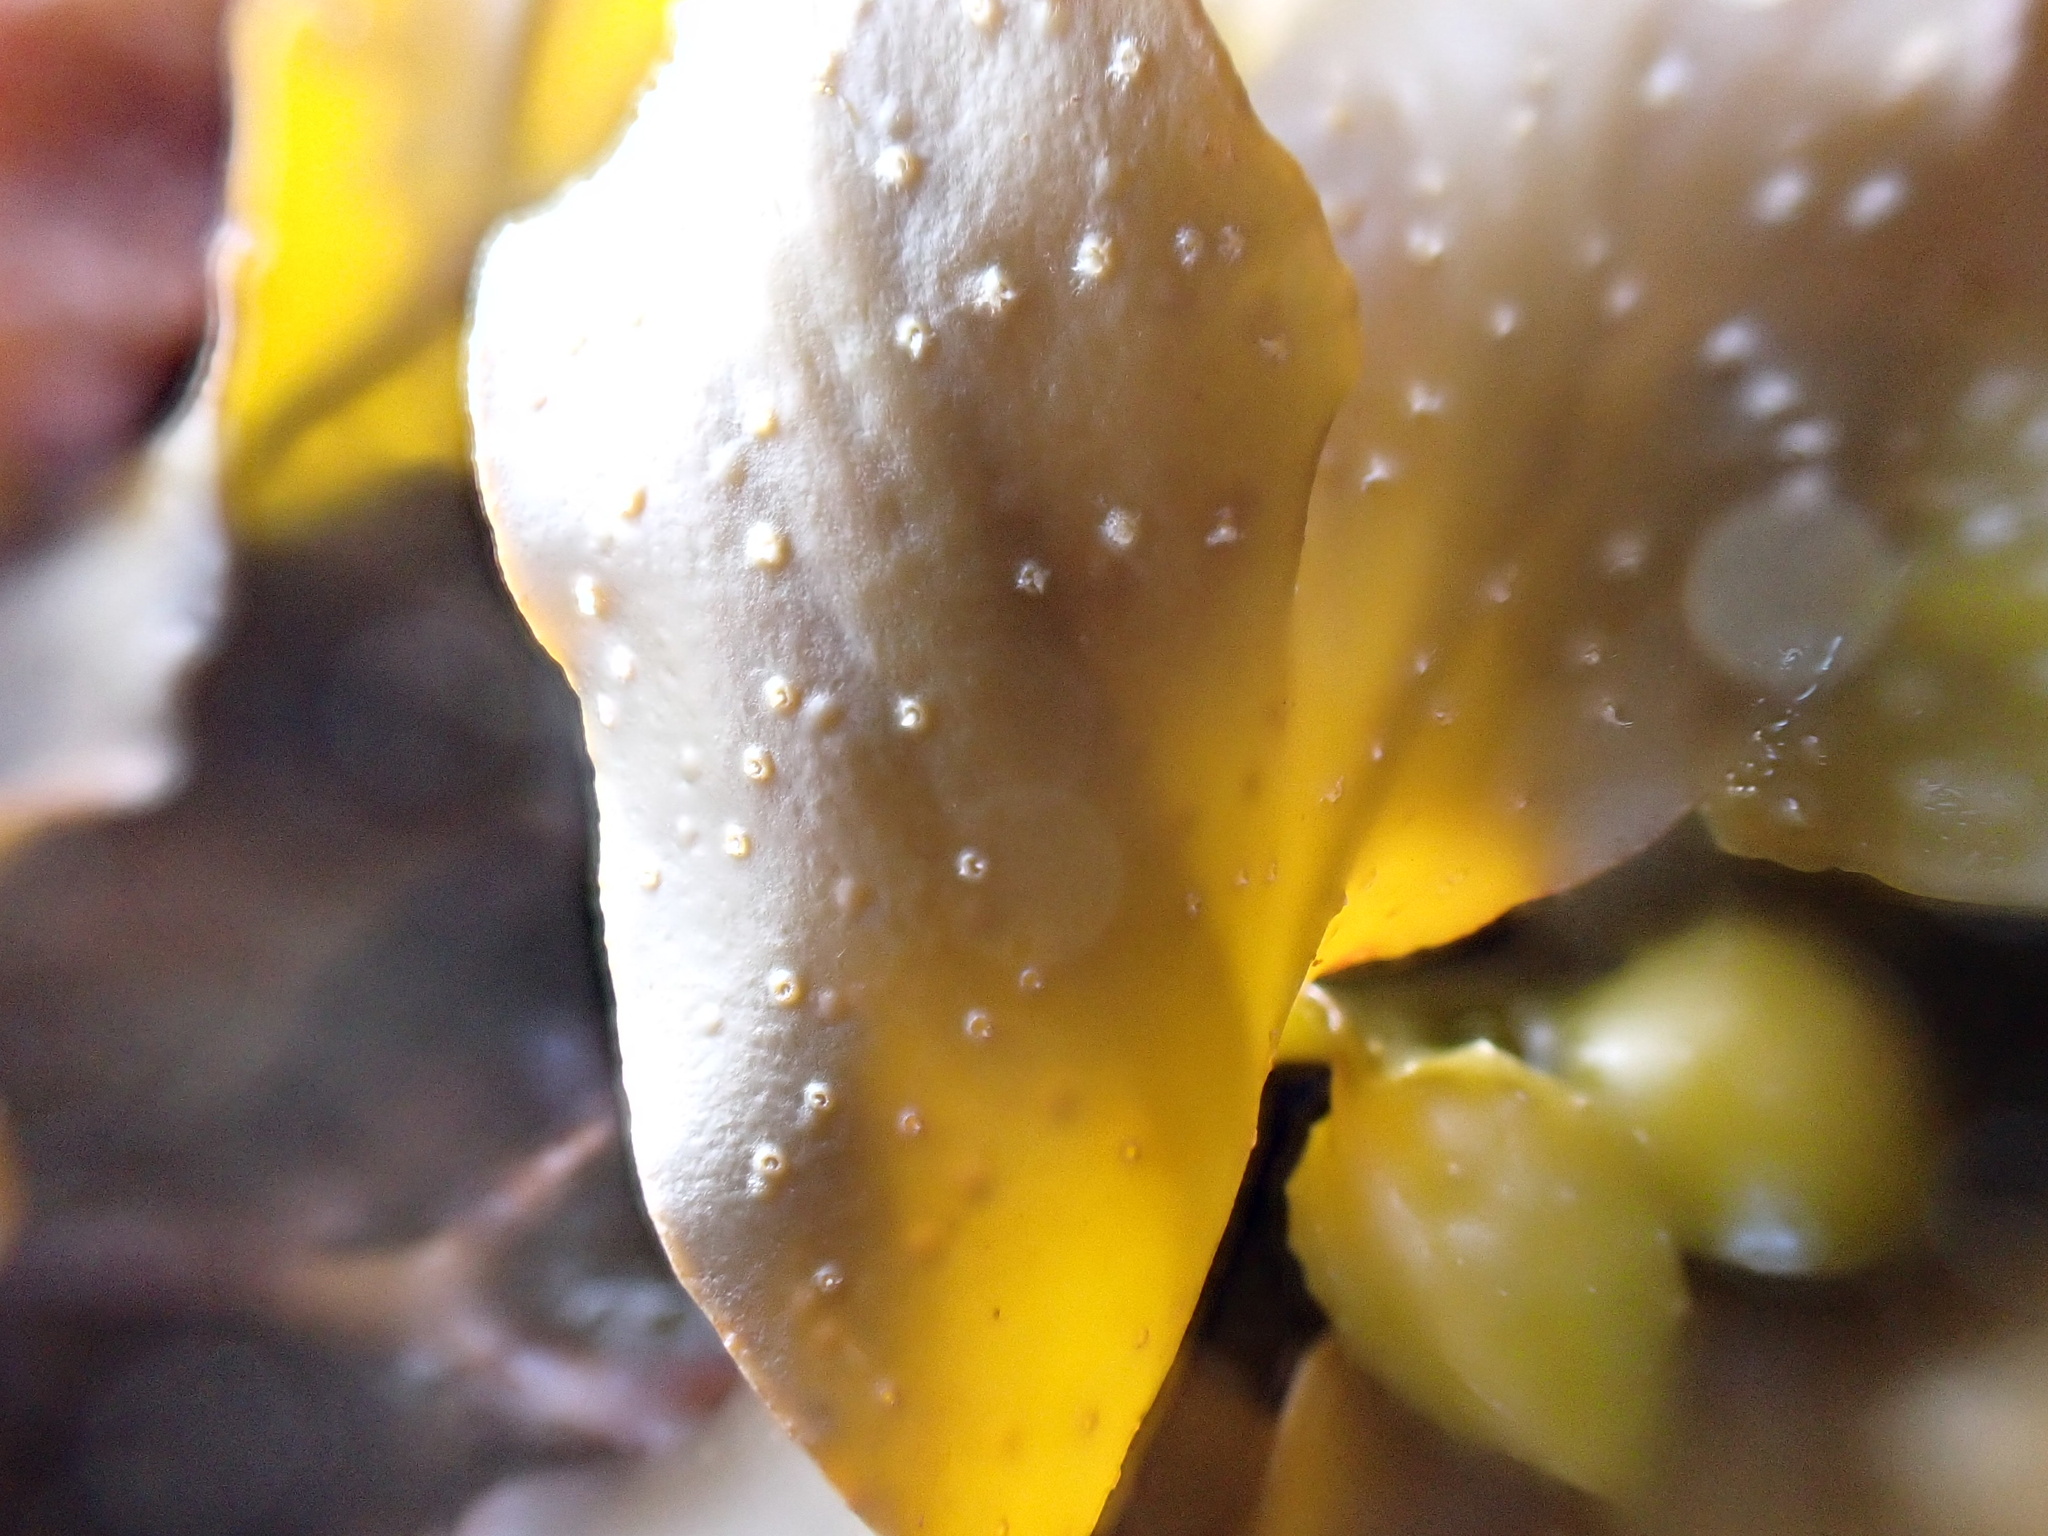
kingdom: Chromista
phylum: Ochrophyta
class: Phaeophyceae
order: Fucales
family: Fucaceae
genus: Fucus
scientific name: Fucus spiralis
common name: Spiral wrack
